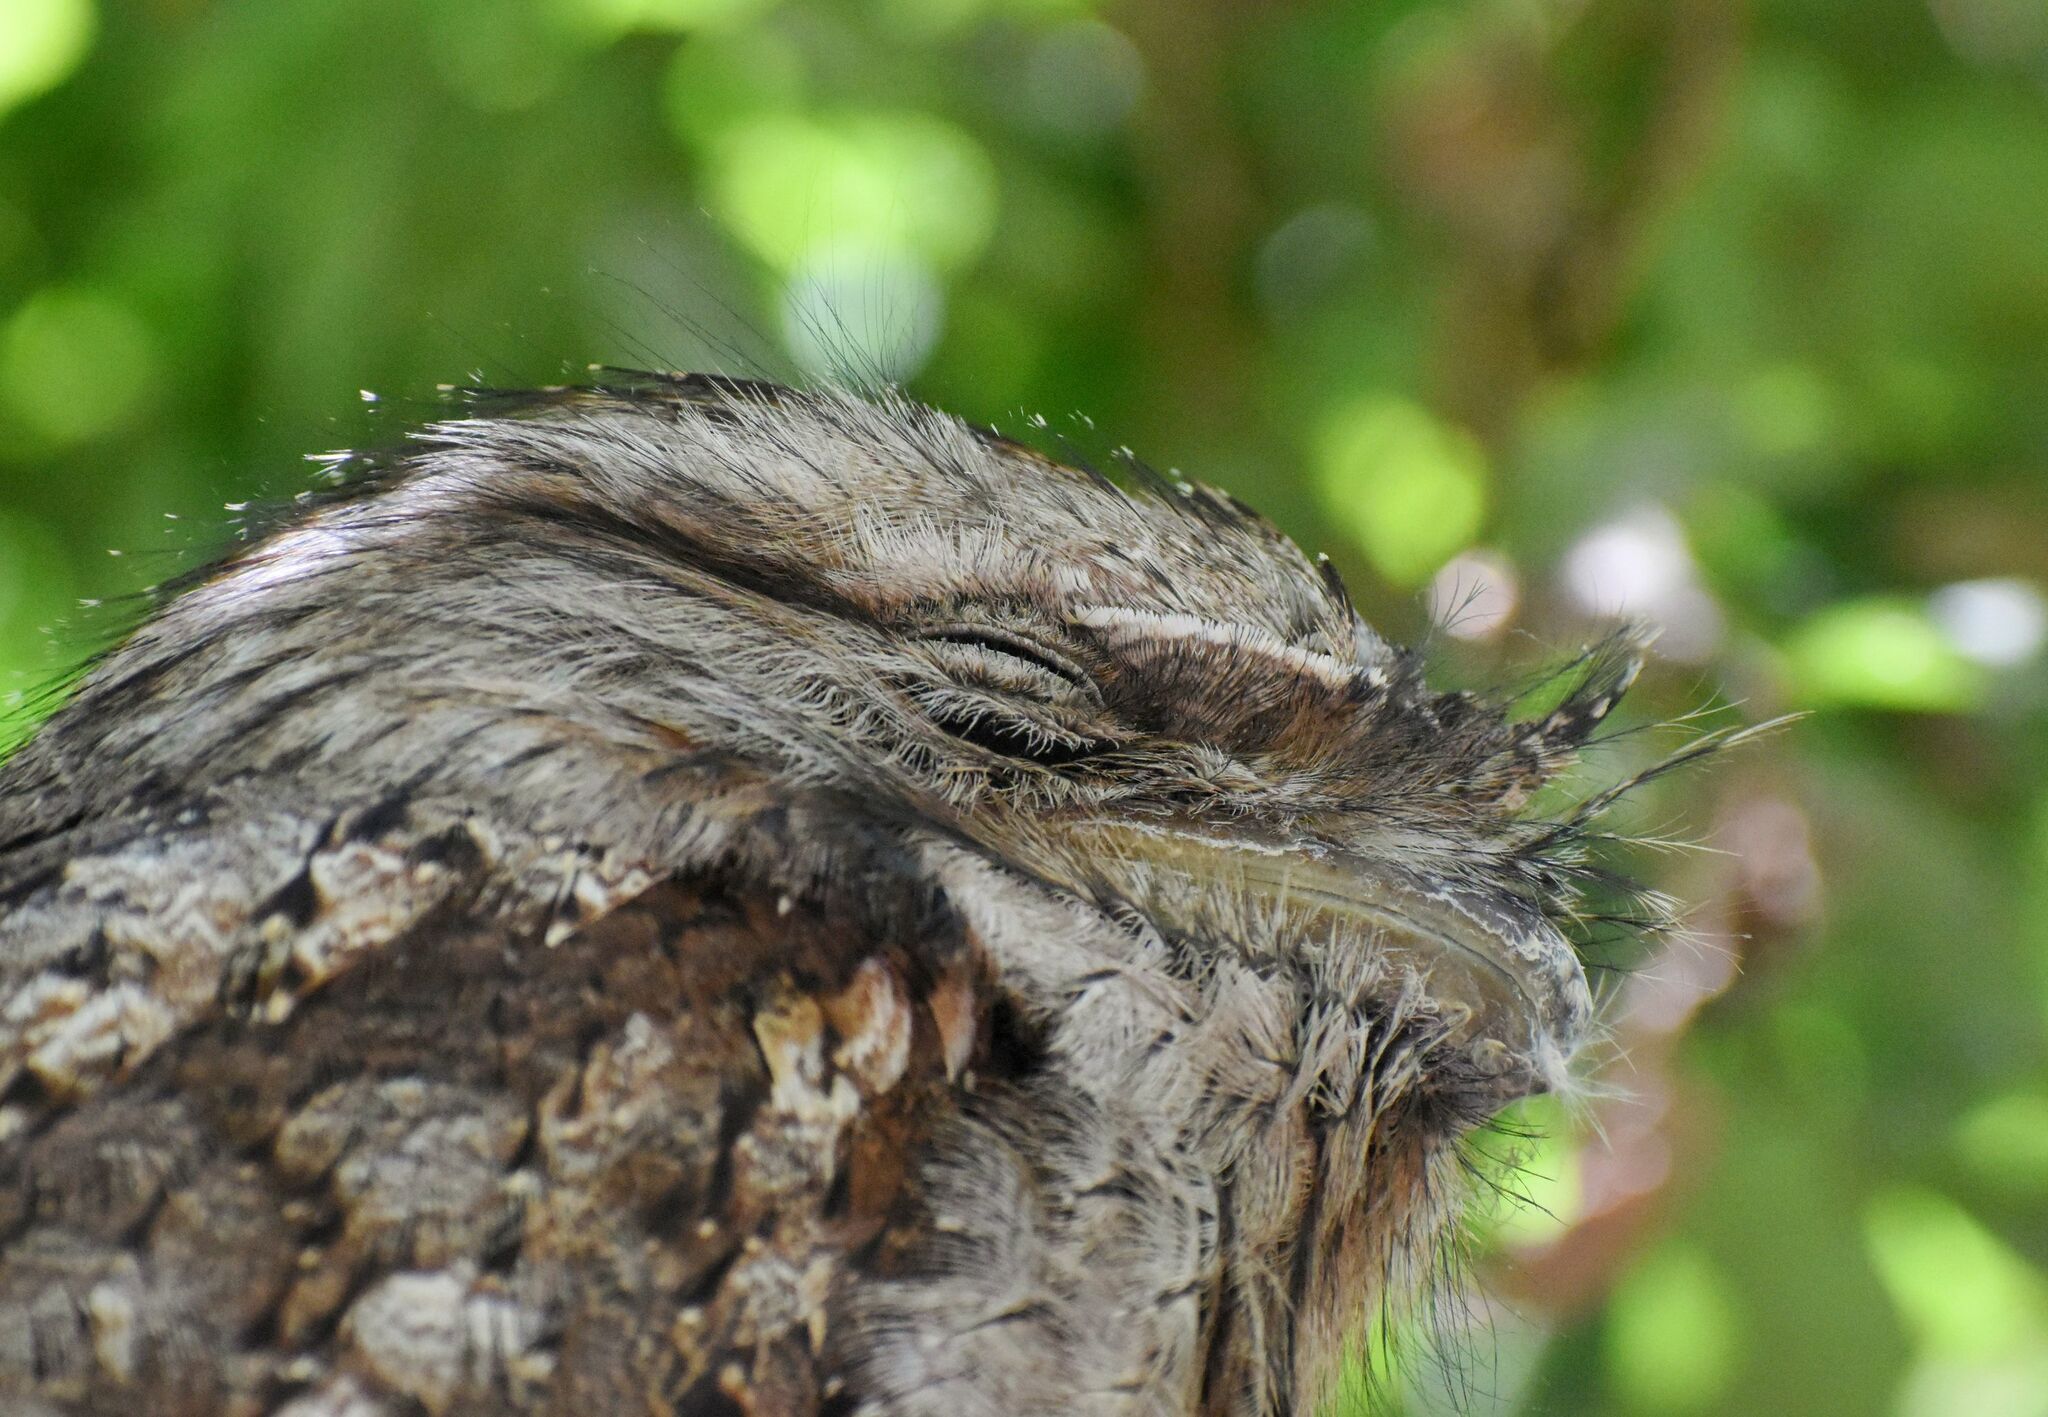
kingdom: Animalia
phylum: Chordata
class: Aves
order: Caprimulgiformes
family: Podargidae
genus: Podargus
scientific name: Podargus strigoides
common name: Tawny frogmouth
